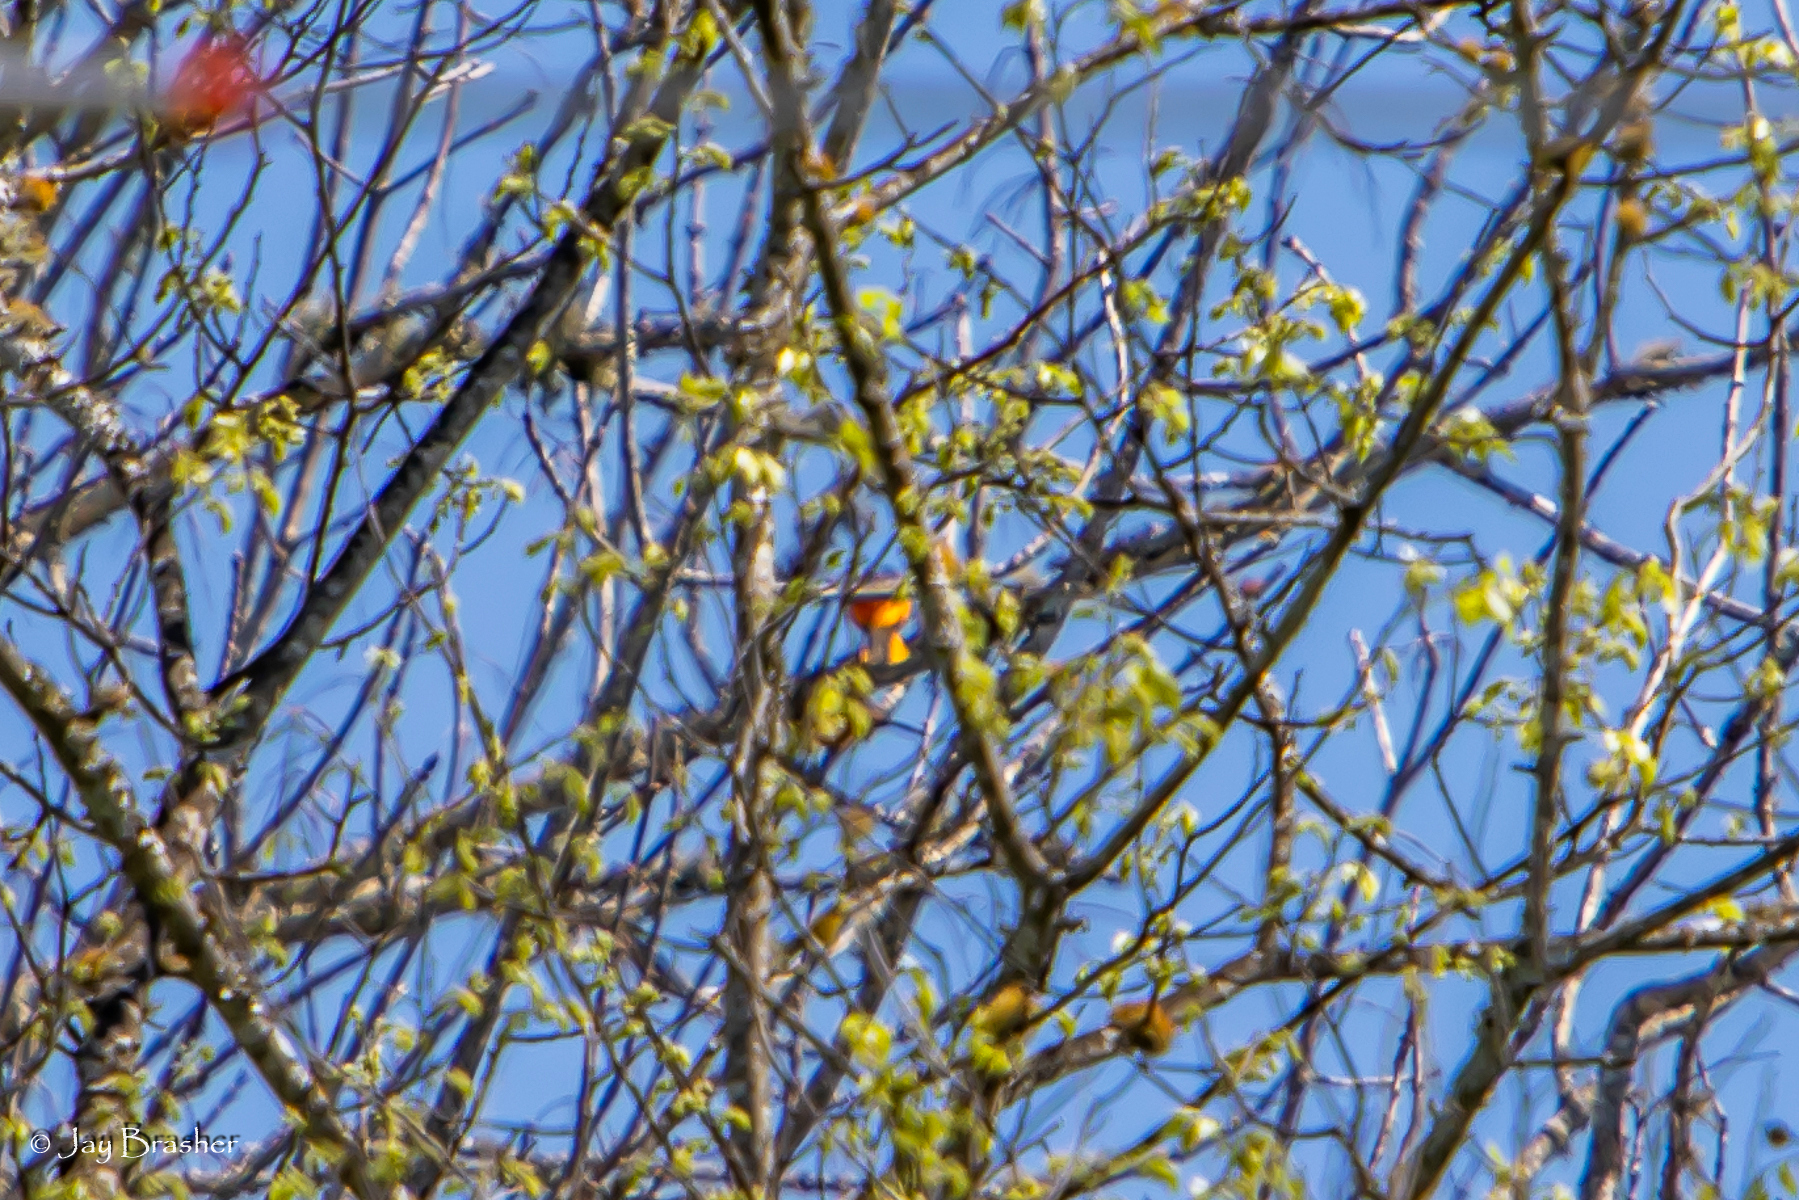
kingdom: Animalia
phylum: Chordata
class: Aves
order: Passeriformes
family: Icteridae
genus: Icterus
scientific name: Icterus galbula
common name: Baltimore oriole
